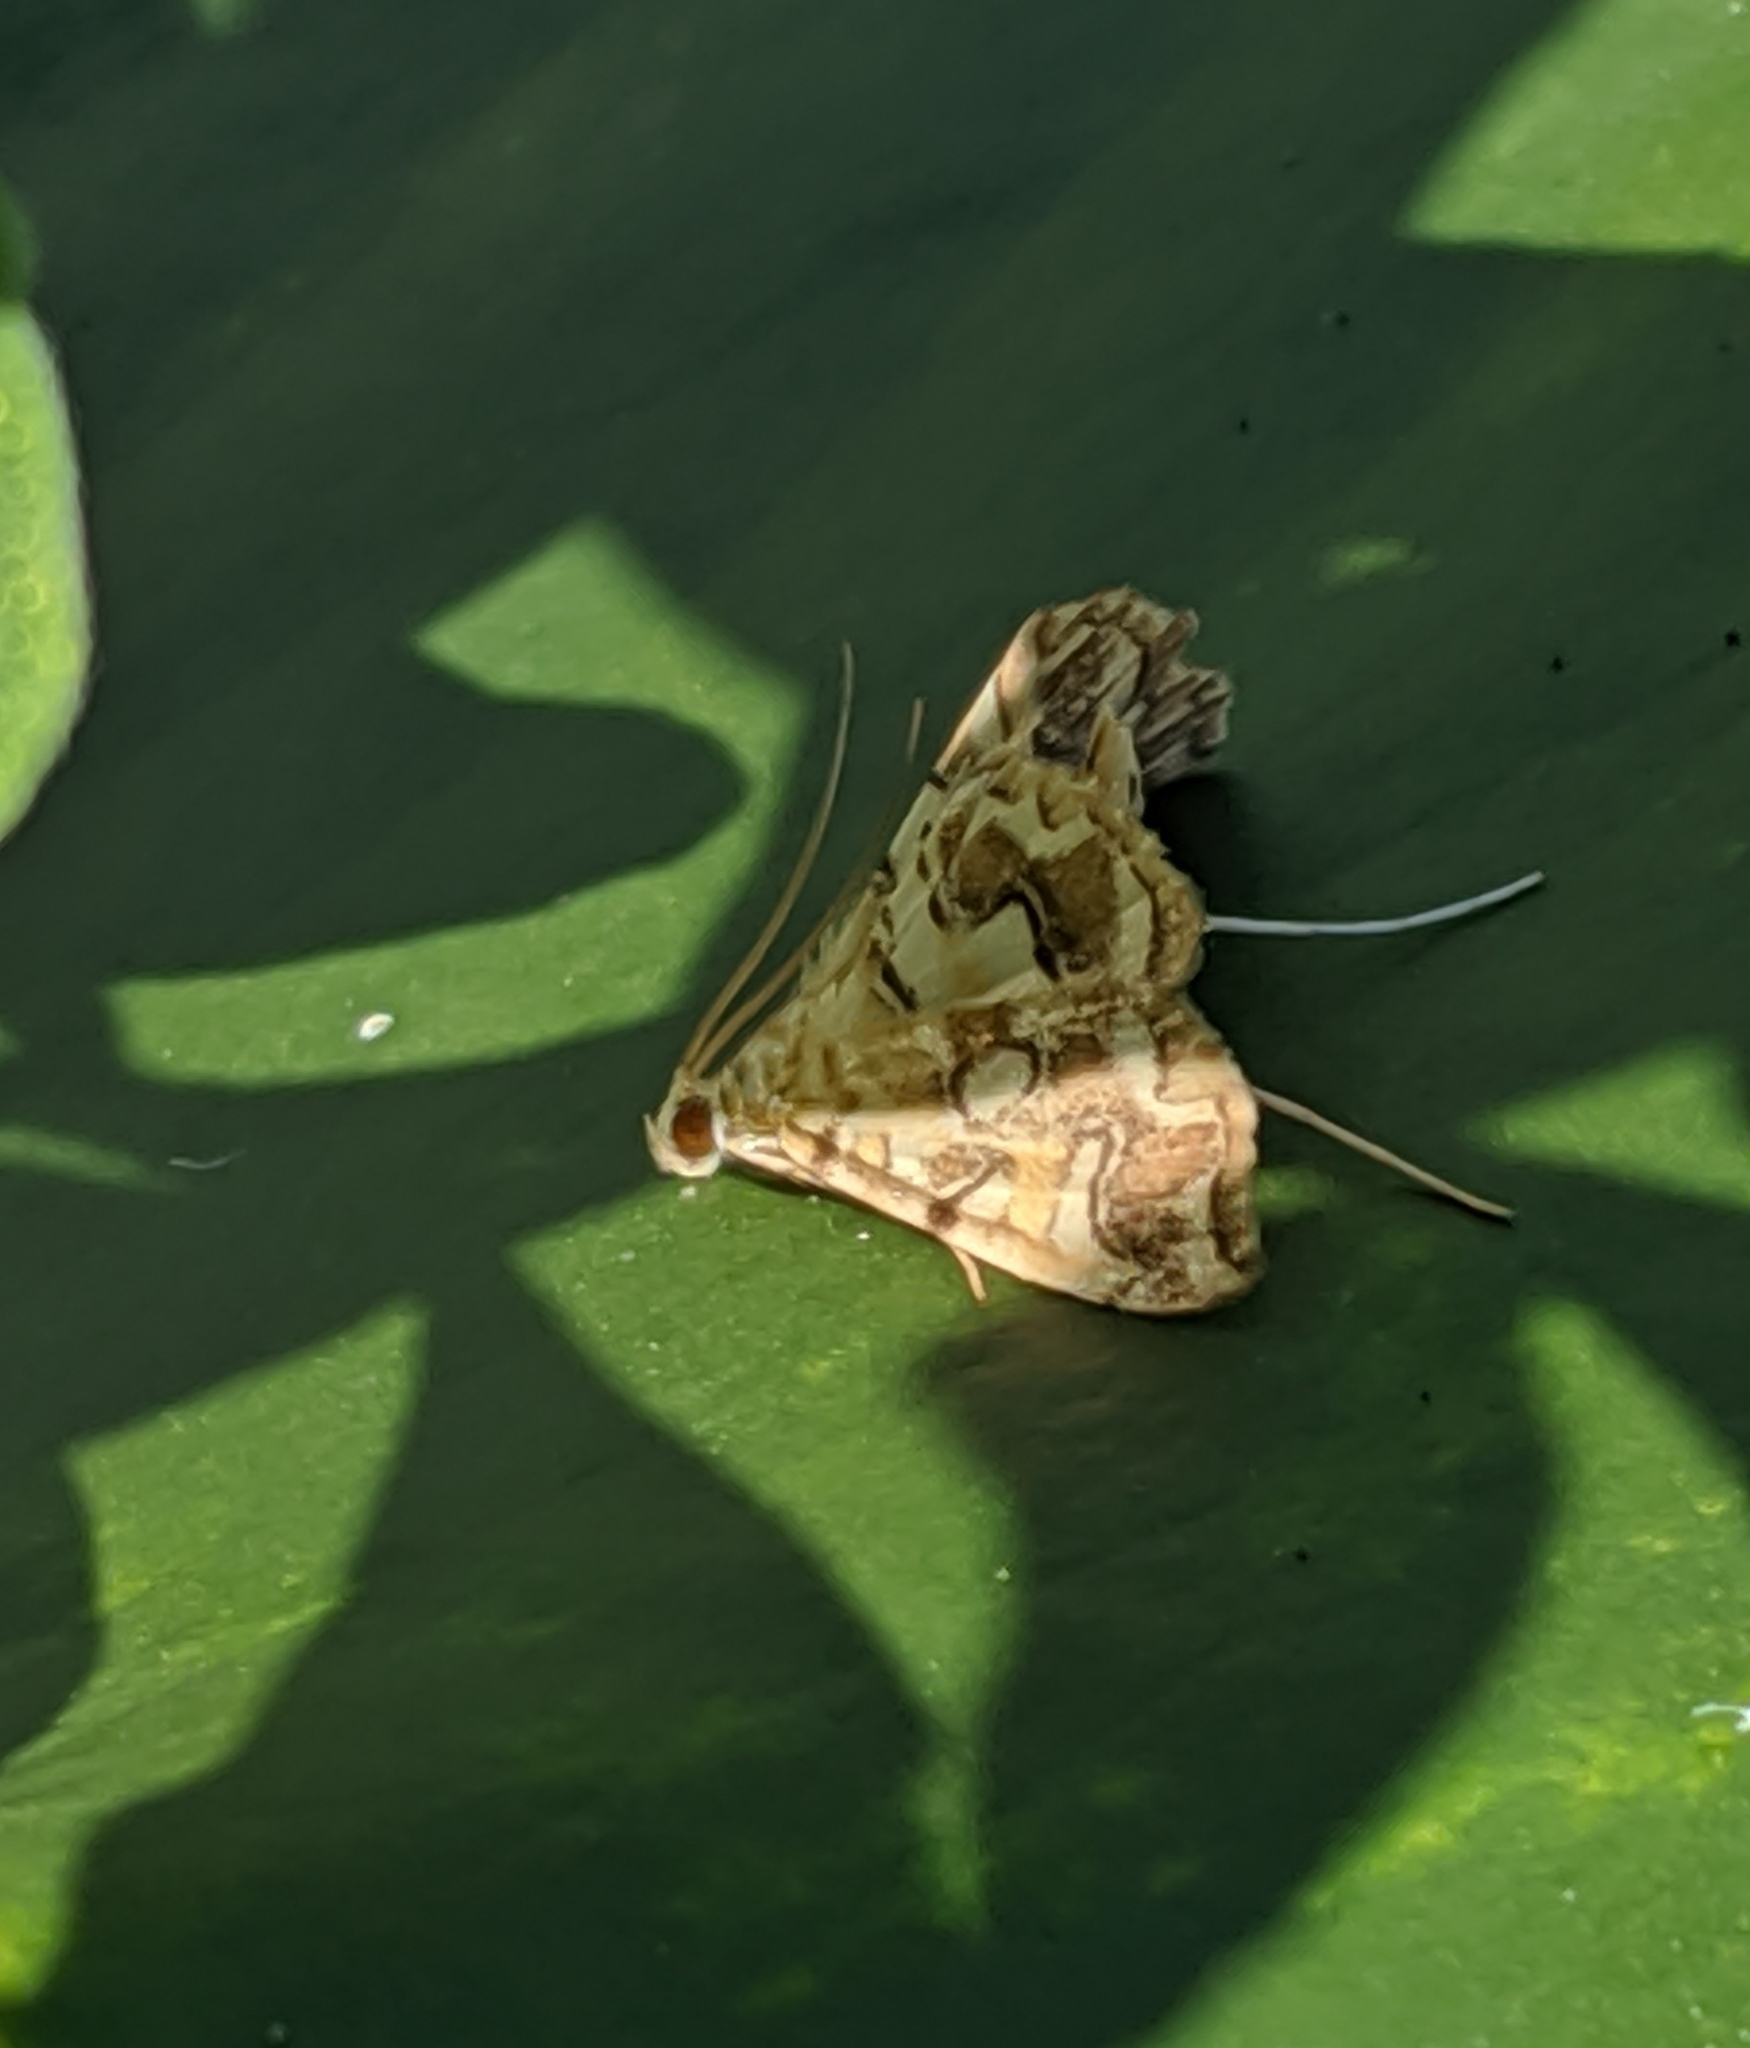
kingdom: Animalia
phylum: Arthropoda
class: Insecta
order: Lepidoptera
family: Crambidae
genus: Elophila
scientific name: Elophila icciusalis
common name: Pondside pyralid moth
